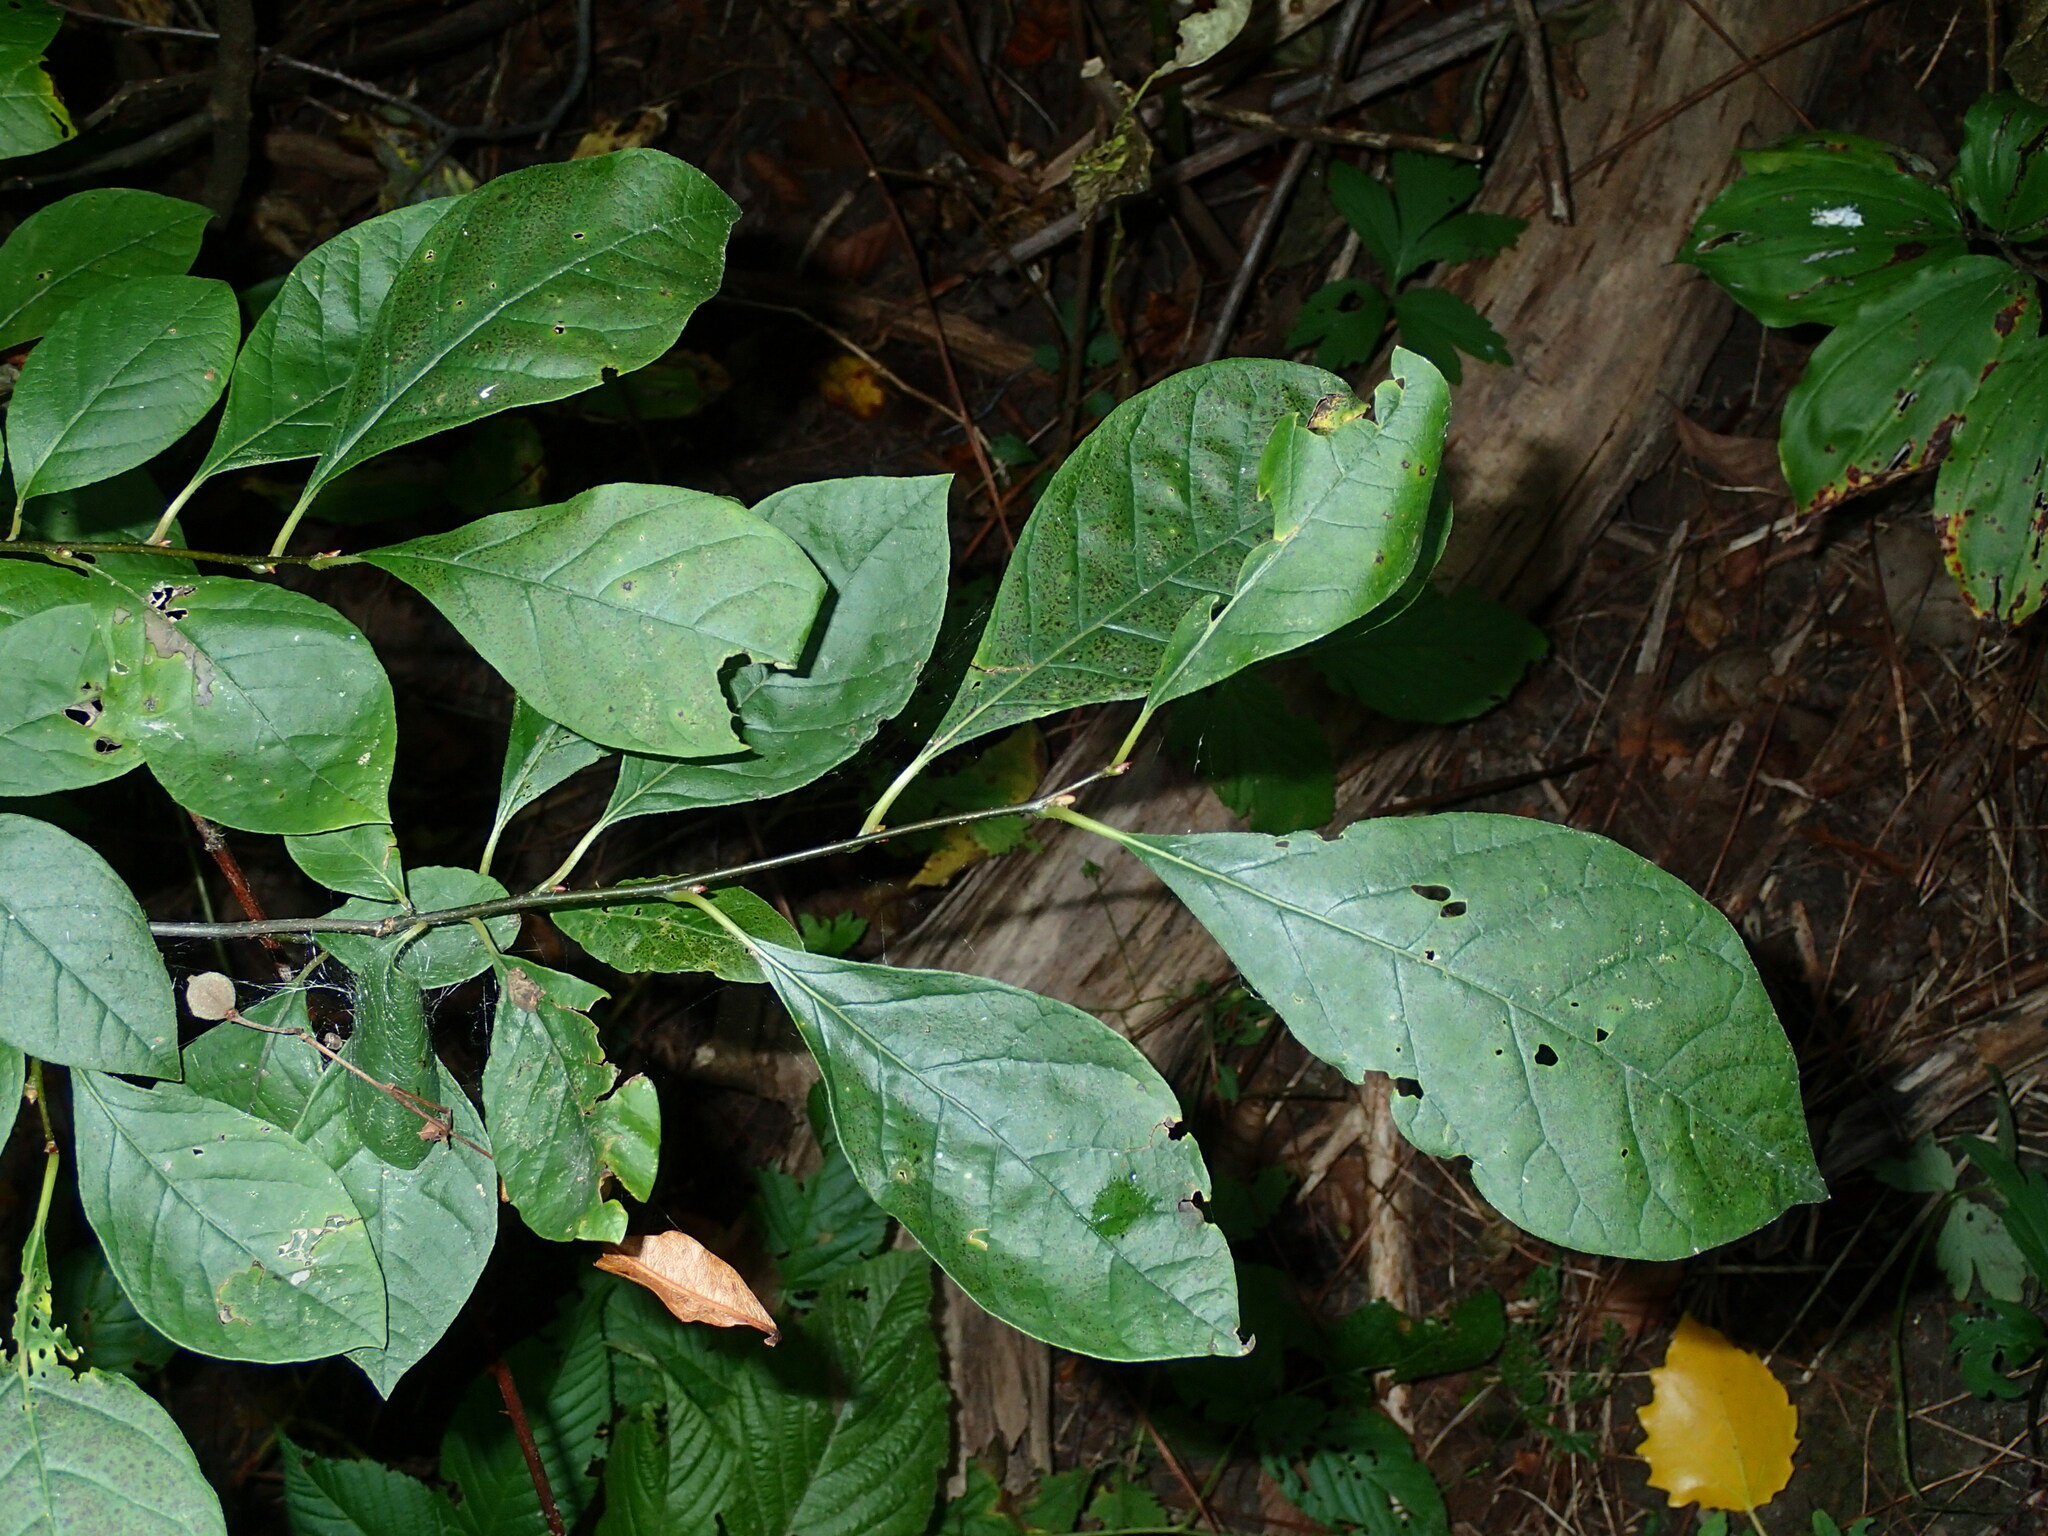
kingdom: Plantae
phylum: Tracheophyta
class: Magnoliopsida
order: Laurales
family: Lauraceae
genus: Lindera
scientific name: Lindera benzoin
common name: Spicebush
